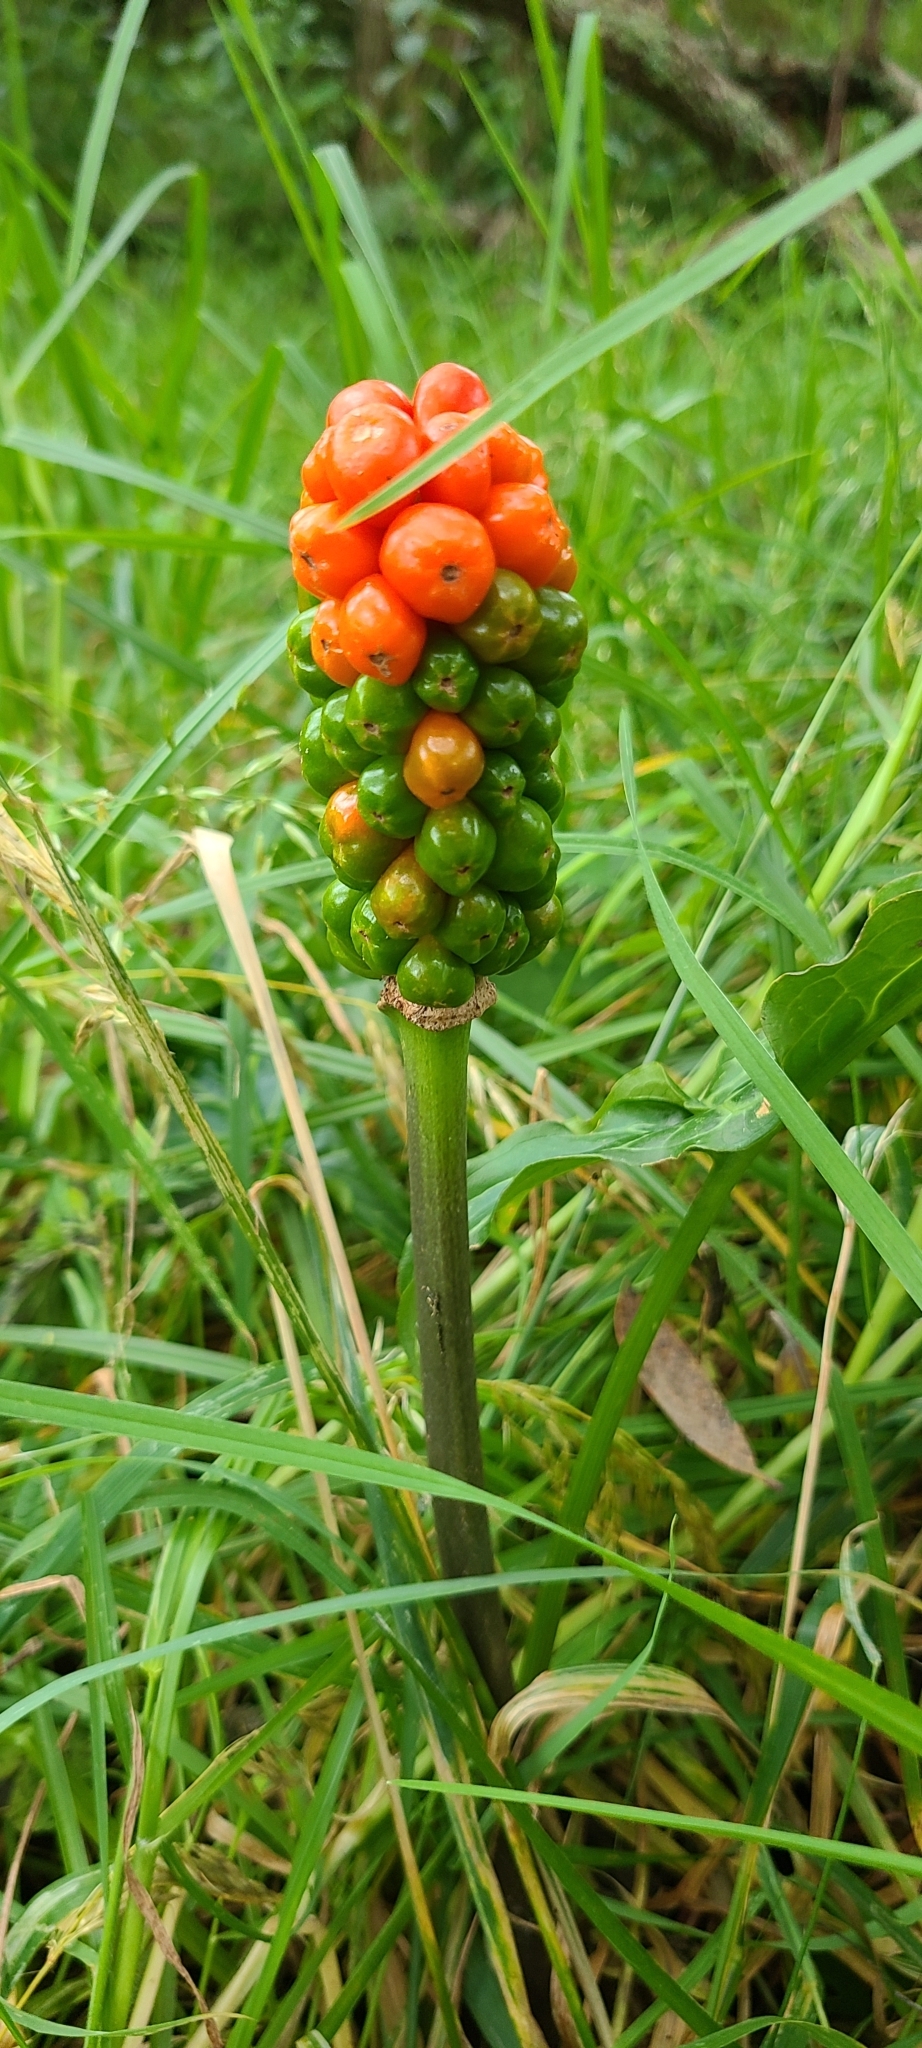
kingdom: Plantae
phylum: Tracheophyta
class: Liliopsida
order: Alismatales
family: Araceae
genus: Arum
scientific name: Arum italicum
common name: Italian lords-and-ladies
